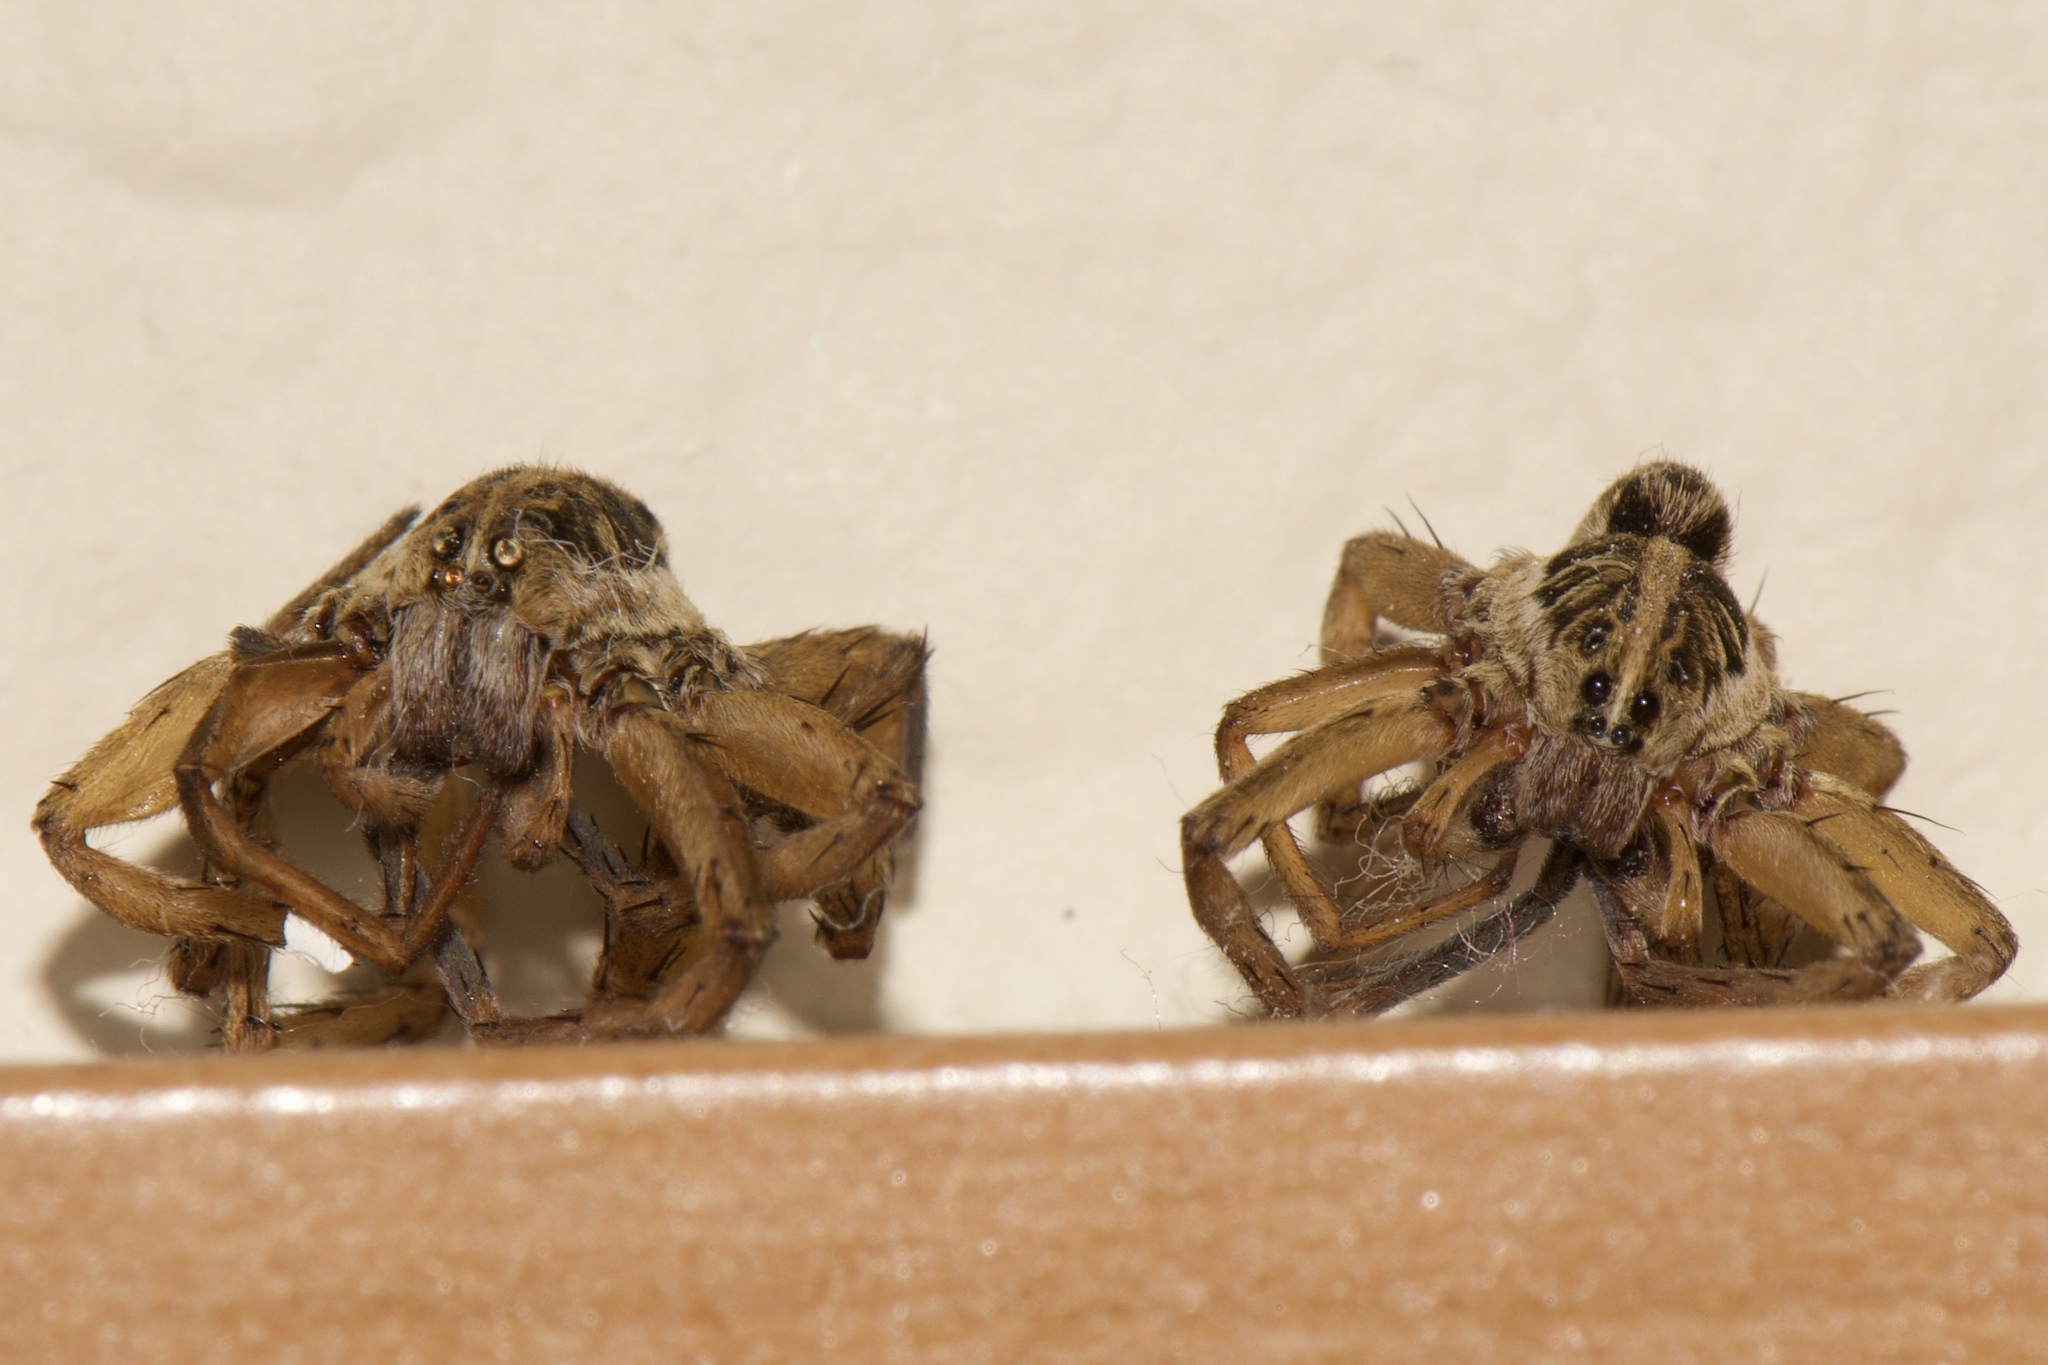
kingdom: Animalia
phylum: Arthropoda
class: Arachnida
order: Araneae
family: Lycosidae
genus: Tigrosa
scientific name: Tigrosa annexa
